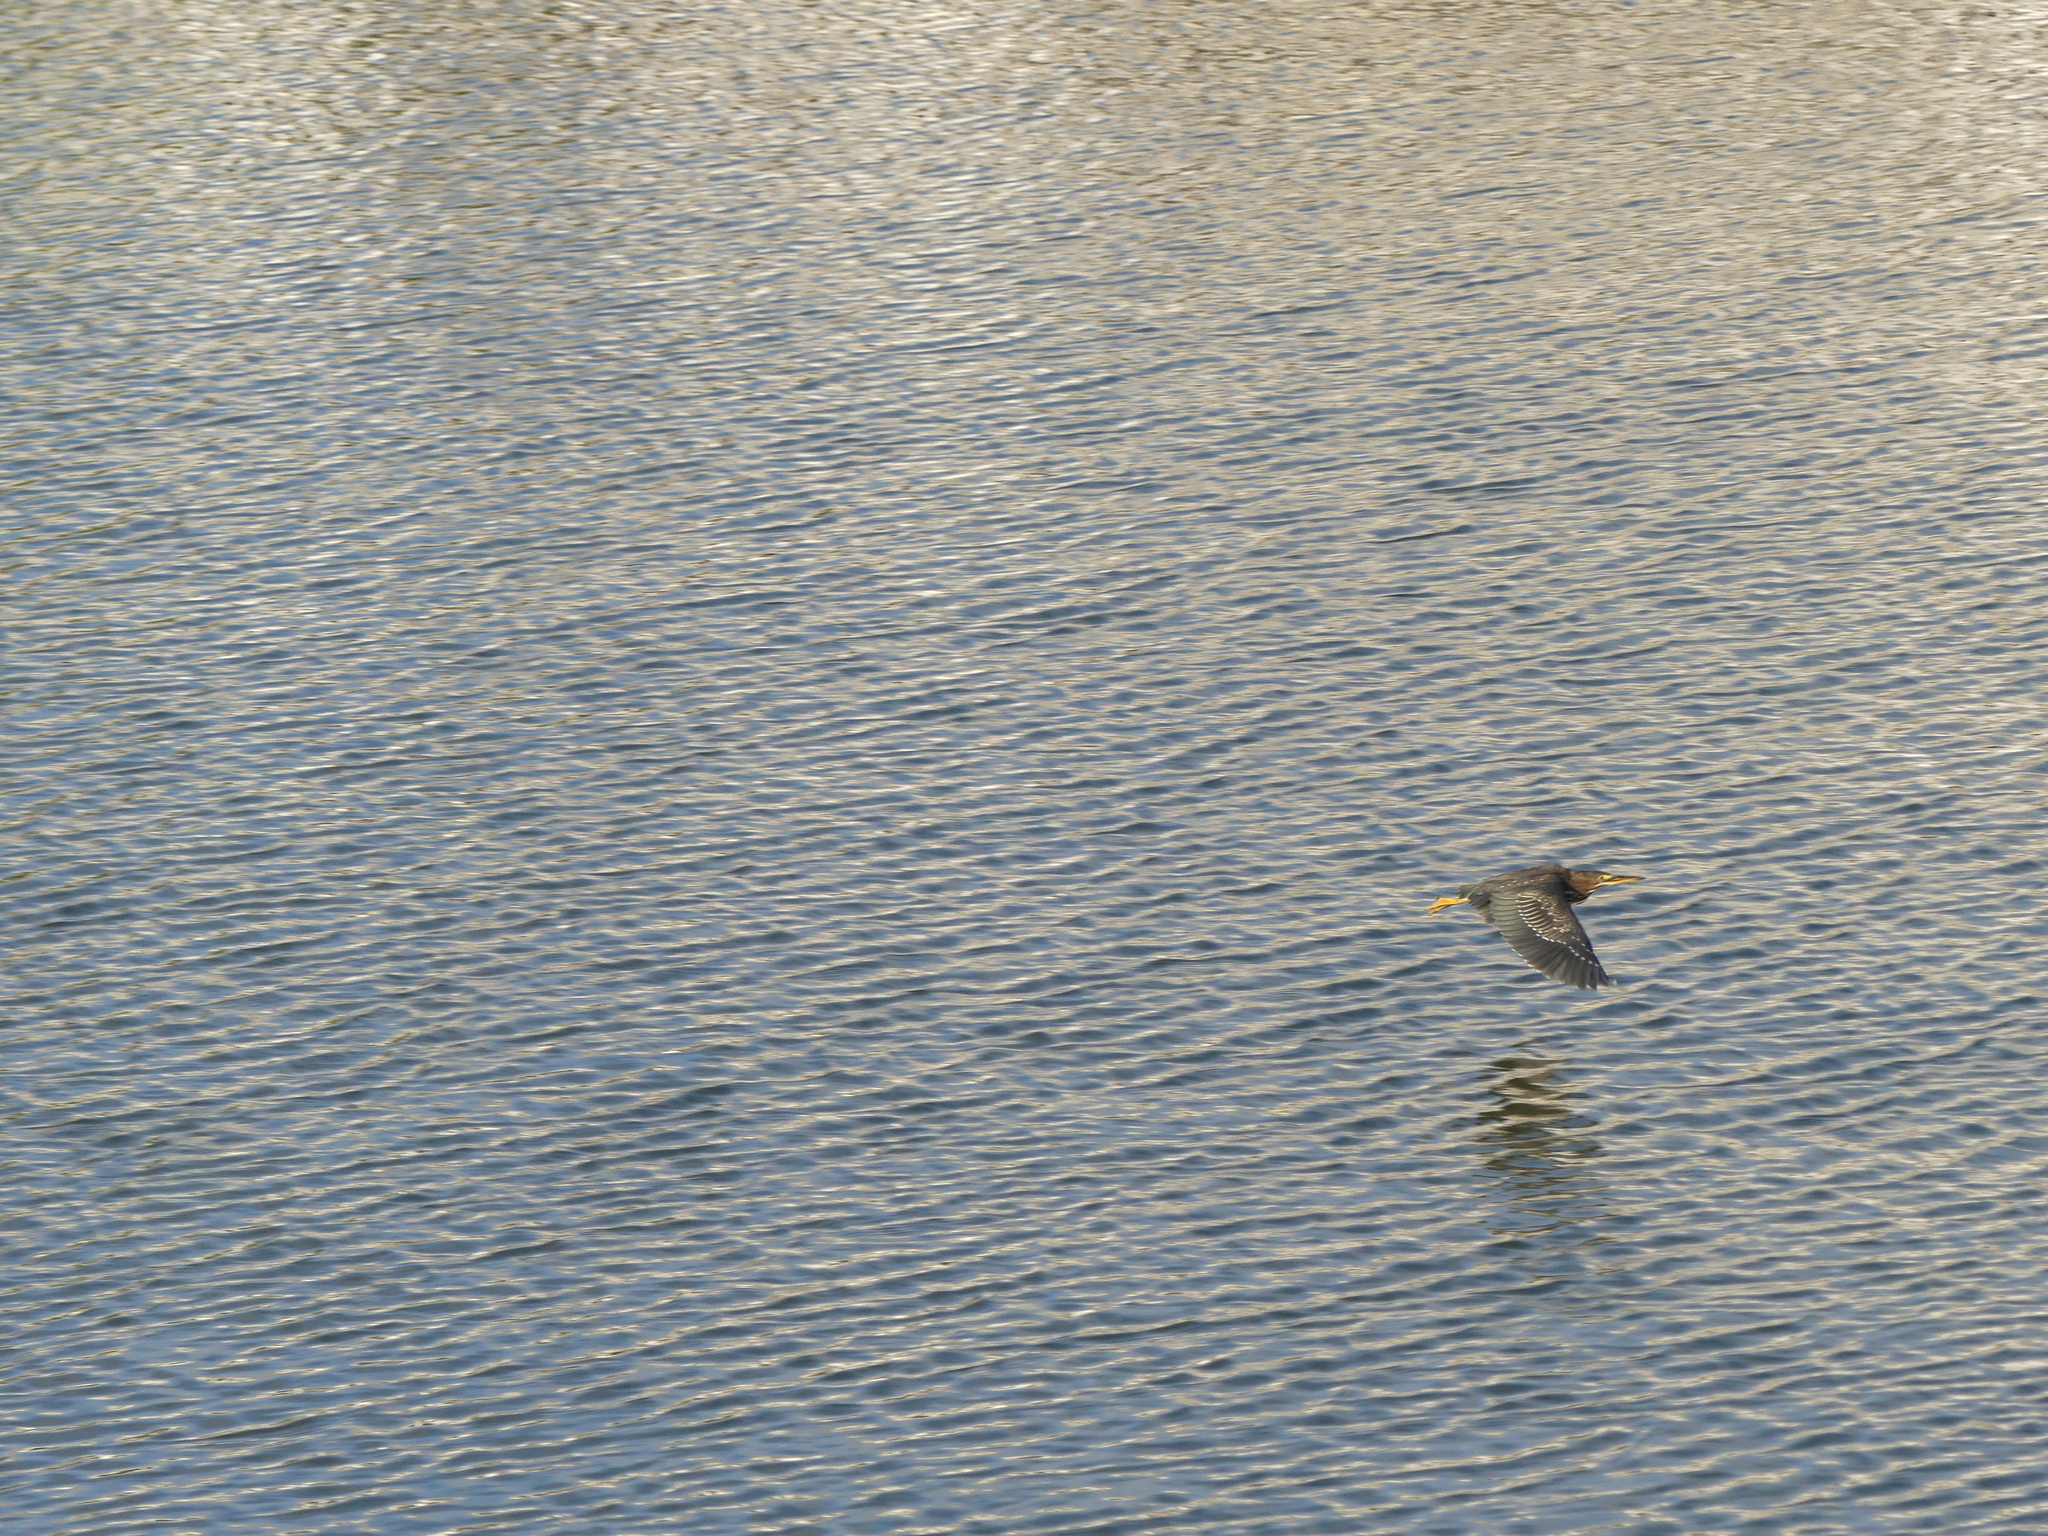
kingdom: Animalia
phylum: Chordata
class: Aves
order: Pelecaniformes
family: Ardeidae
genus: Butorides
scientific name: Butorides virescens
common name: Green heron
